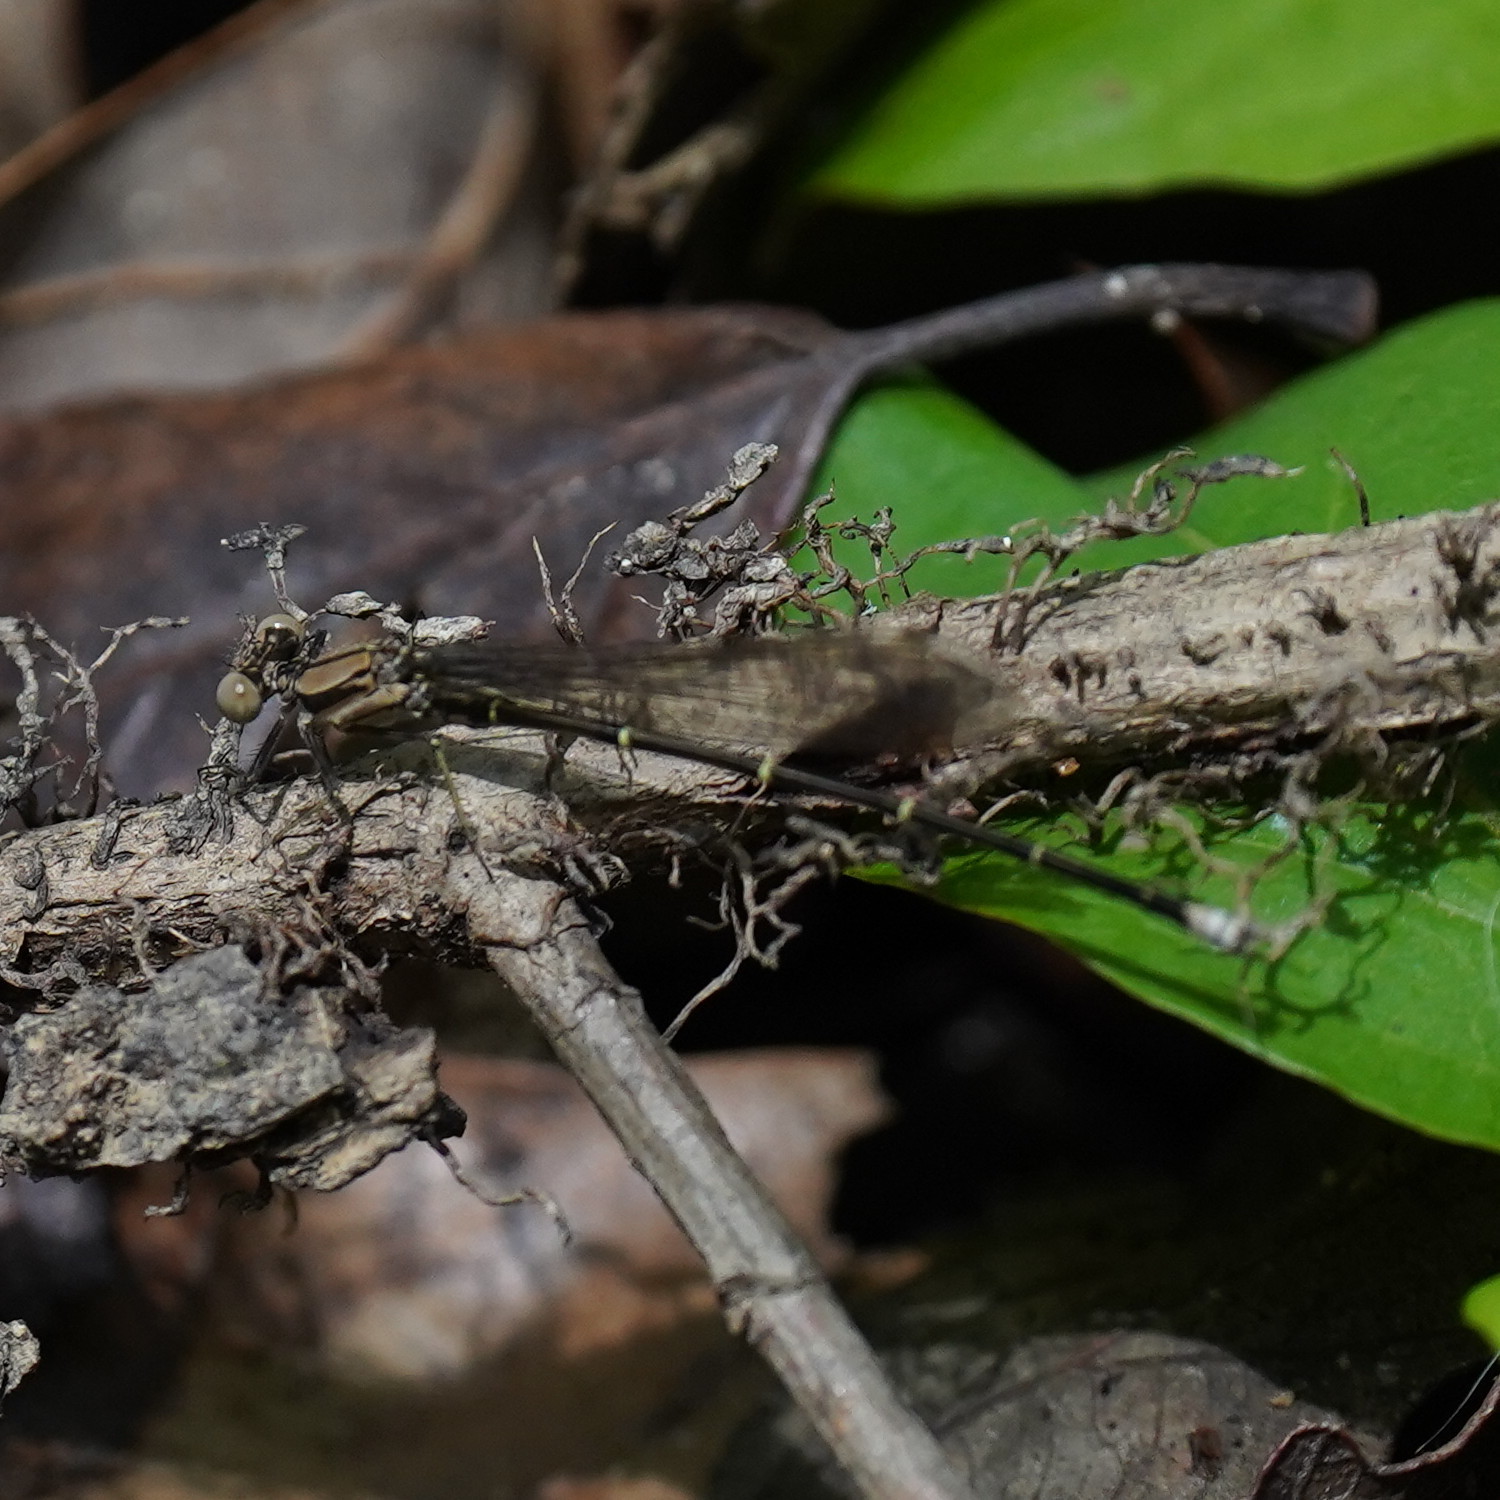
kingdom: Animalia
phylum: Arthropoda
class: Insecta
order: Odonata
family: Coenagrionidae
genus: Argia
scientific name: Argia tibialis
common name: Blue-tipped dancer
